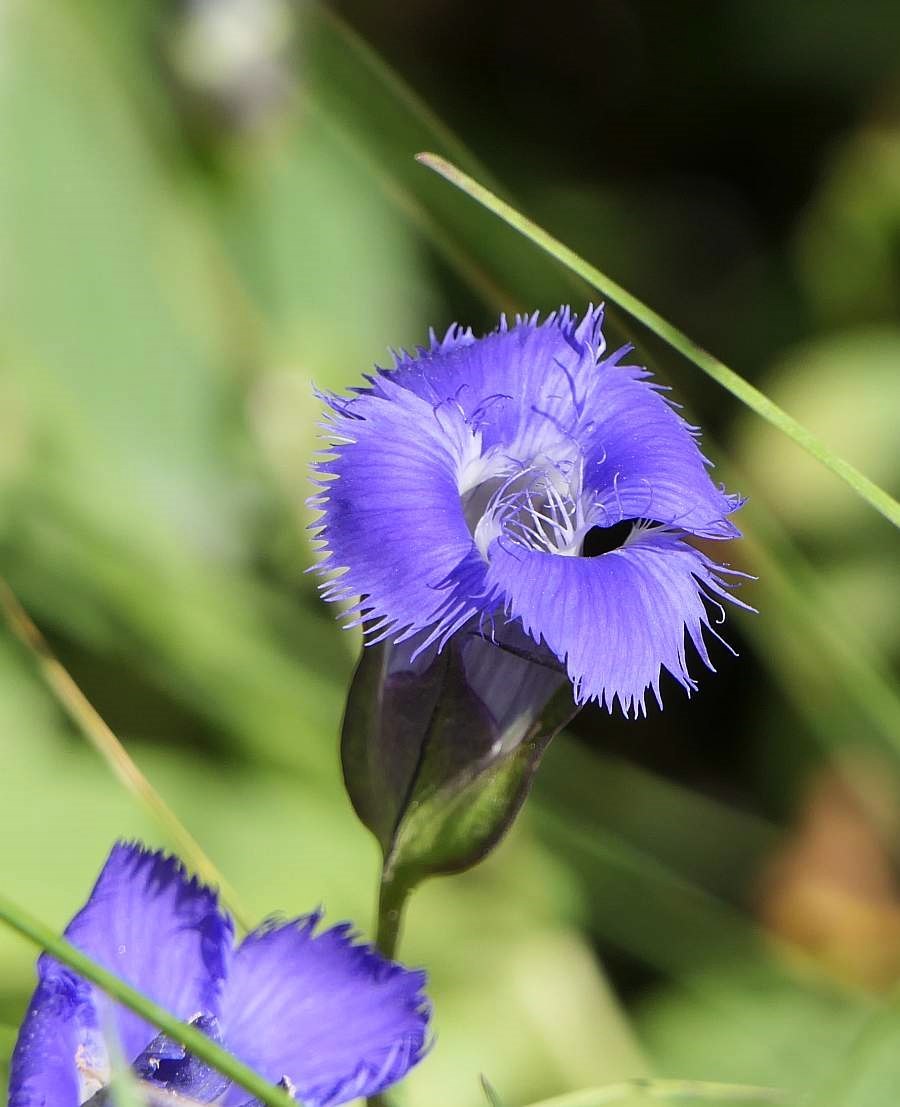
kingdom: Plantae
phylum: Tracheophyta
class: Magnoliopsida
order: Gentianales
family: Gentianaceae
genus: Gentianopsis
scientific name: Gentianopsis crinita
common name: Fringed-gentian
